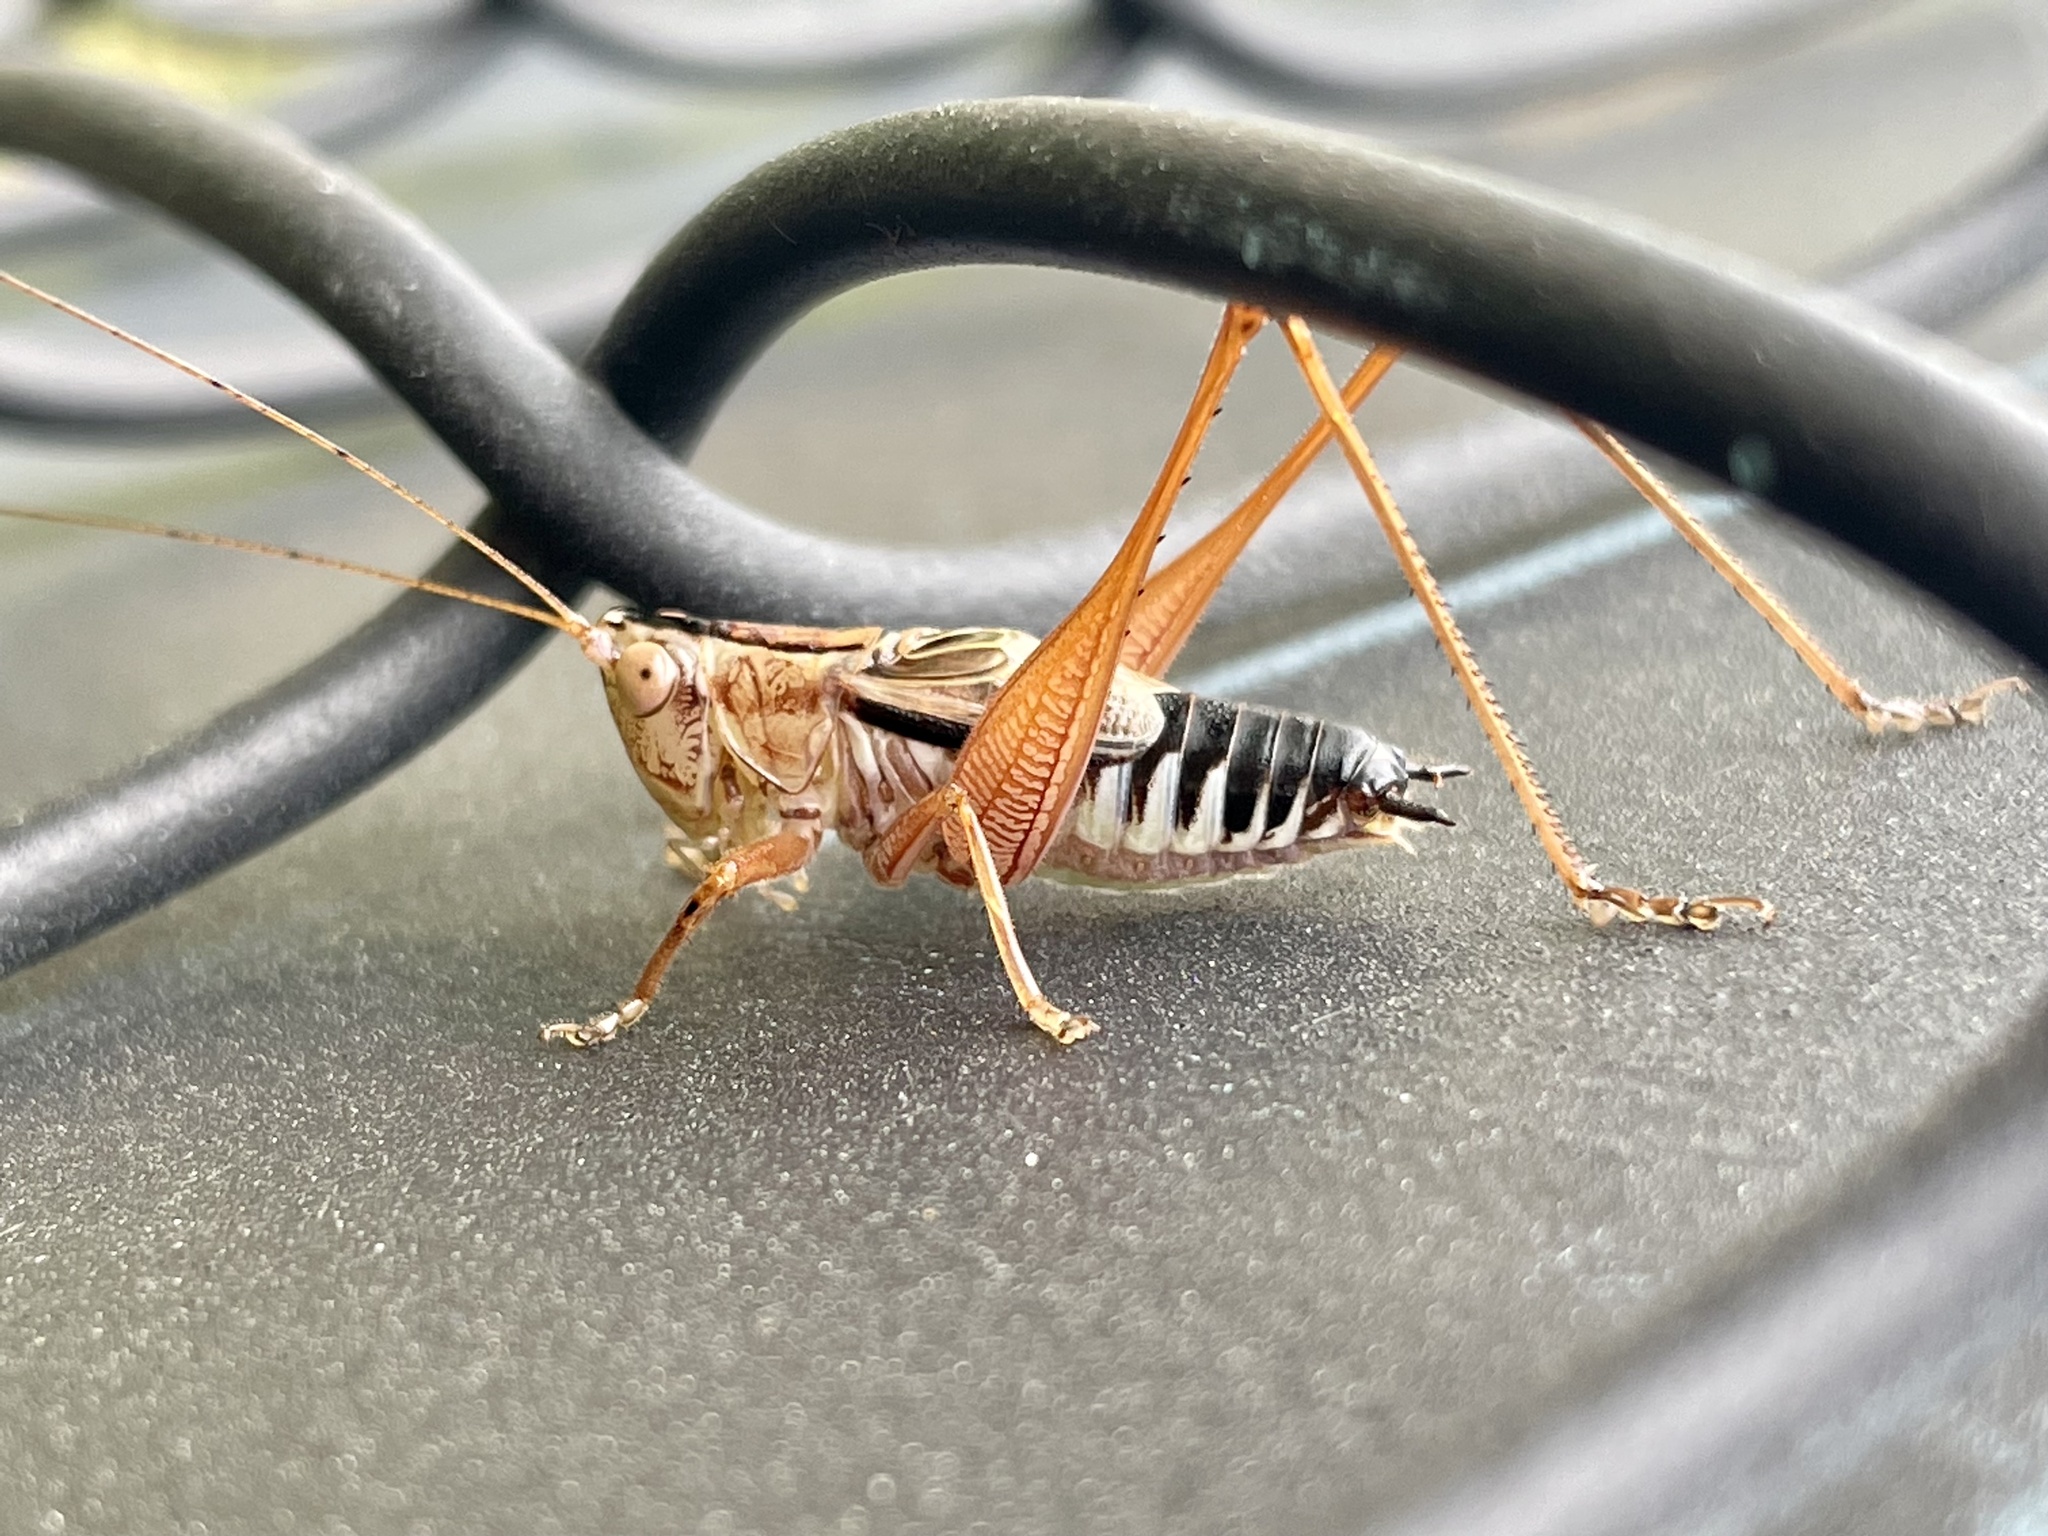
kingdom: Animalia
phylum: Arthropoda
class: Insecta
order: Orthoptera
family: Tettigoniidae
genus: Conocephalus
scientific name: Conocephalus semivittatus
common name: Blackish meadow katydid
